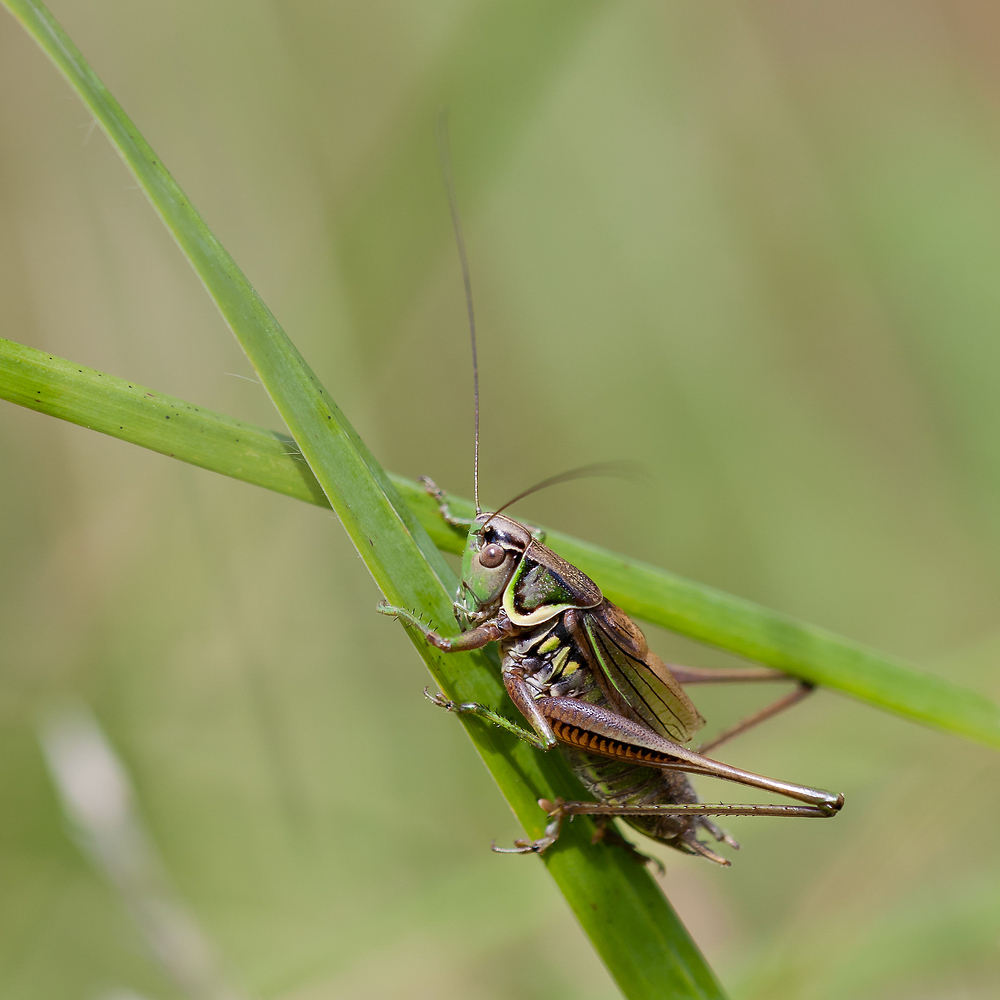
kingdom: Animalia
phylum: Arthropoda
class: Insecta
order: Orthoptera
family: Tettigoniidae
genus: Roeseliana
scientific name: Roeseliana roeselii
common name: Roesel's bush cricket
